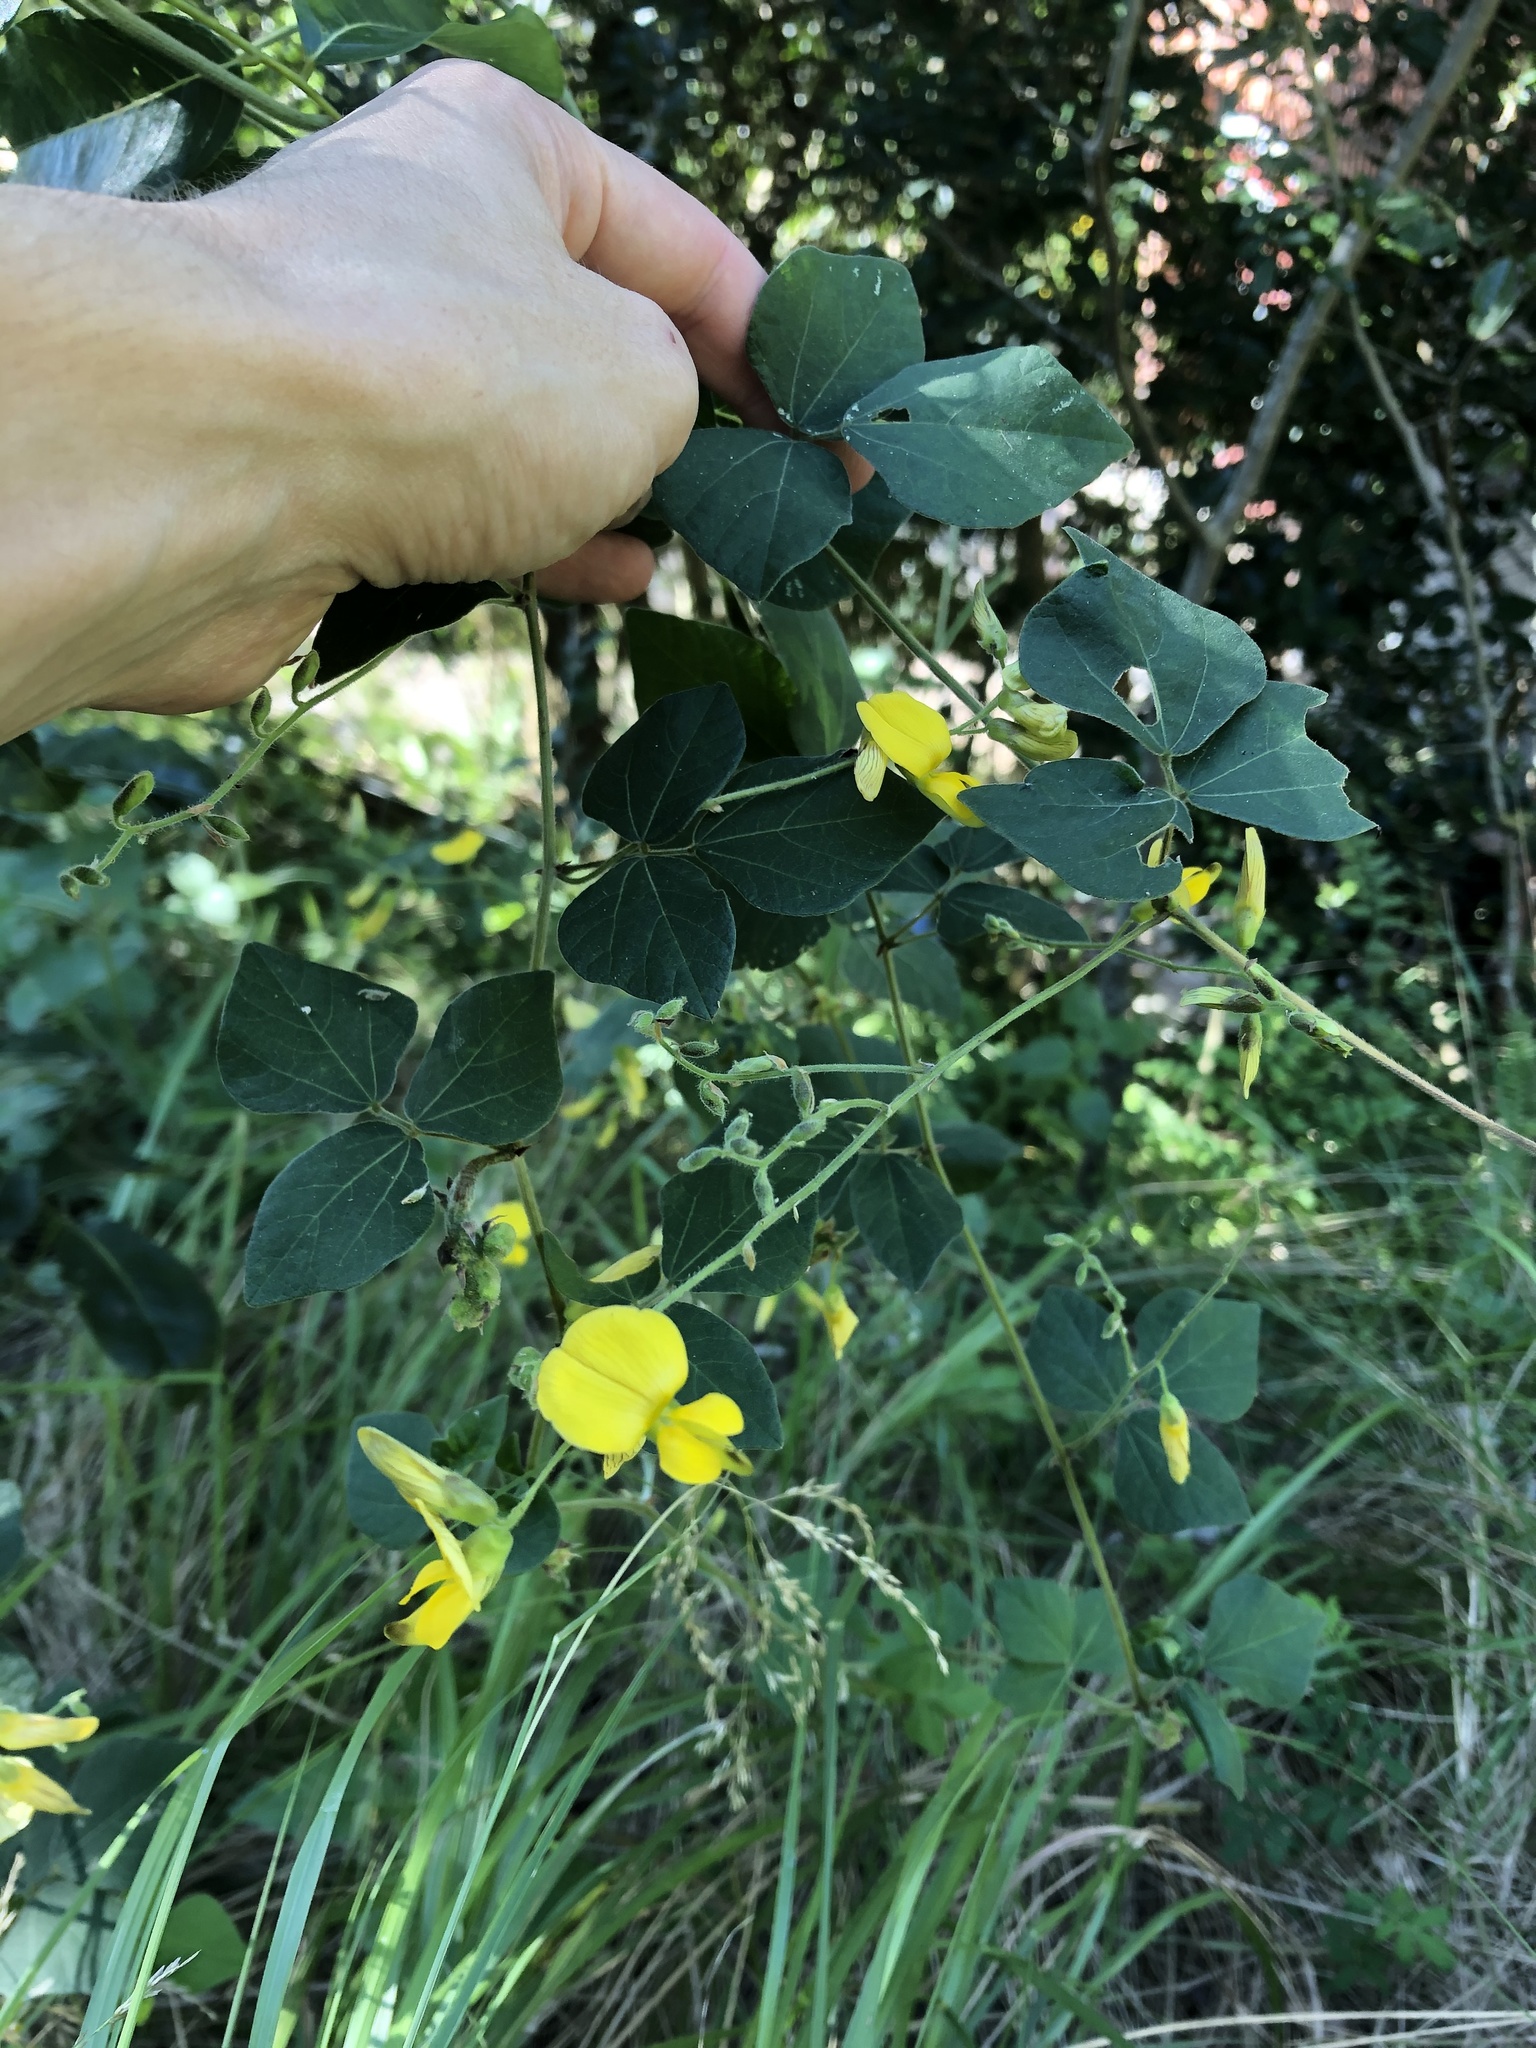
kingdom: Plantae
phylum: Tracheophyta
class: Magnoliopsida
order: Fabales
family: Fabaceae
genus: Rhynchosia
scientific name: Rhynchosia minima
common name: Least snoutbean
